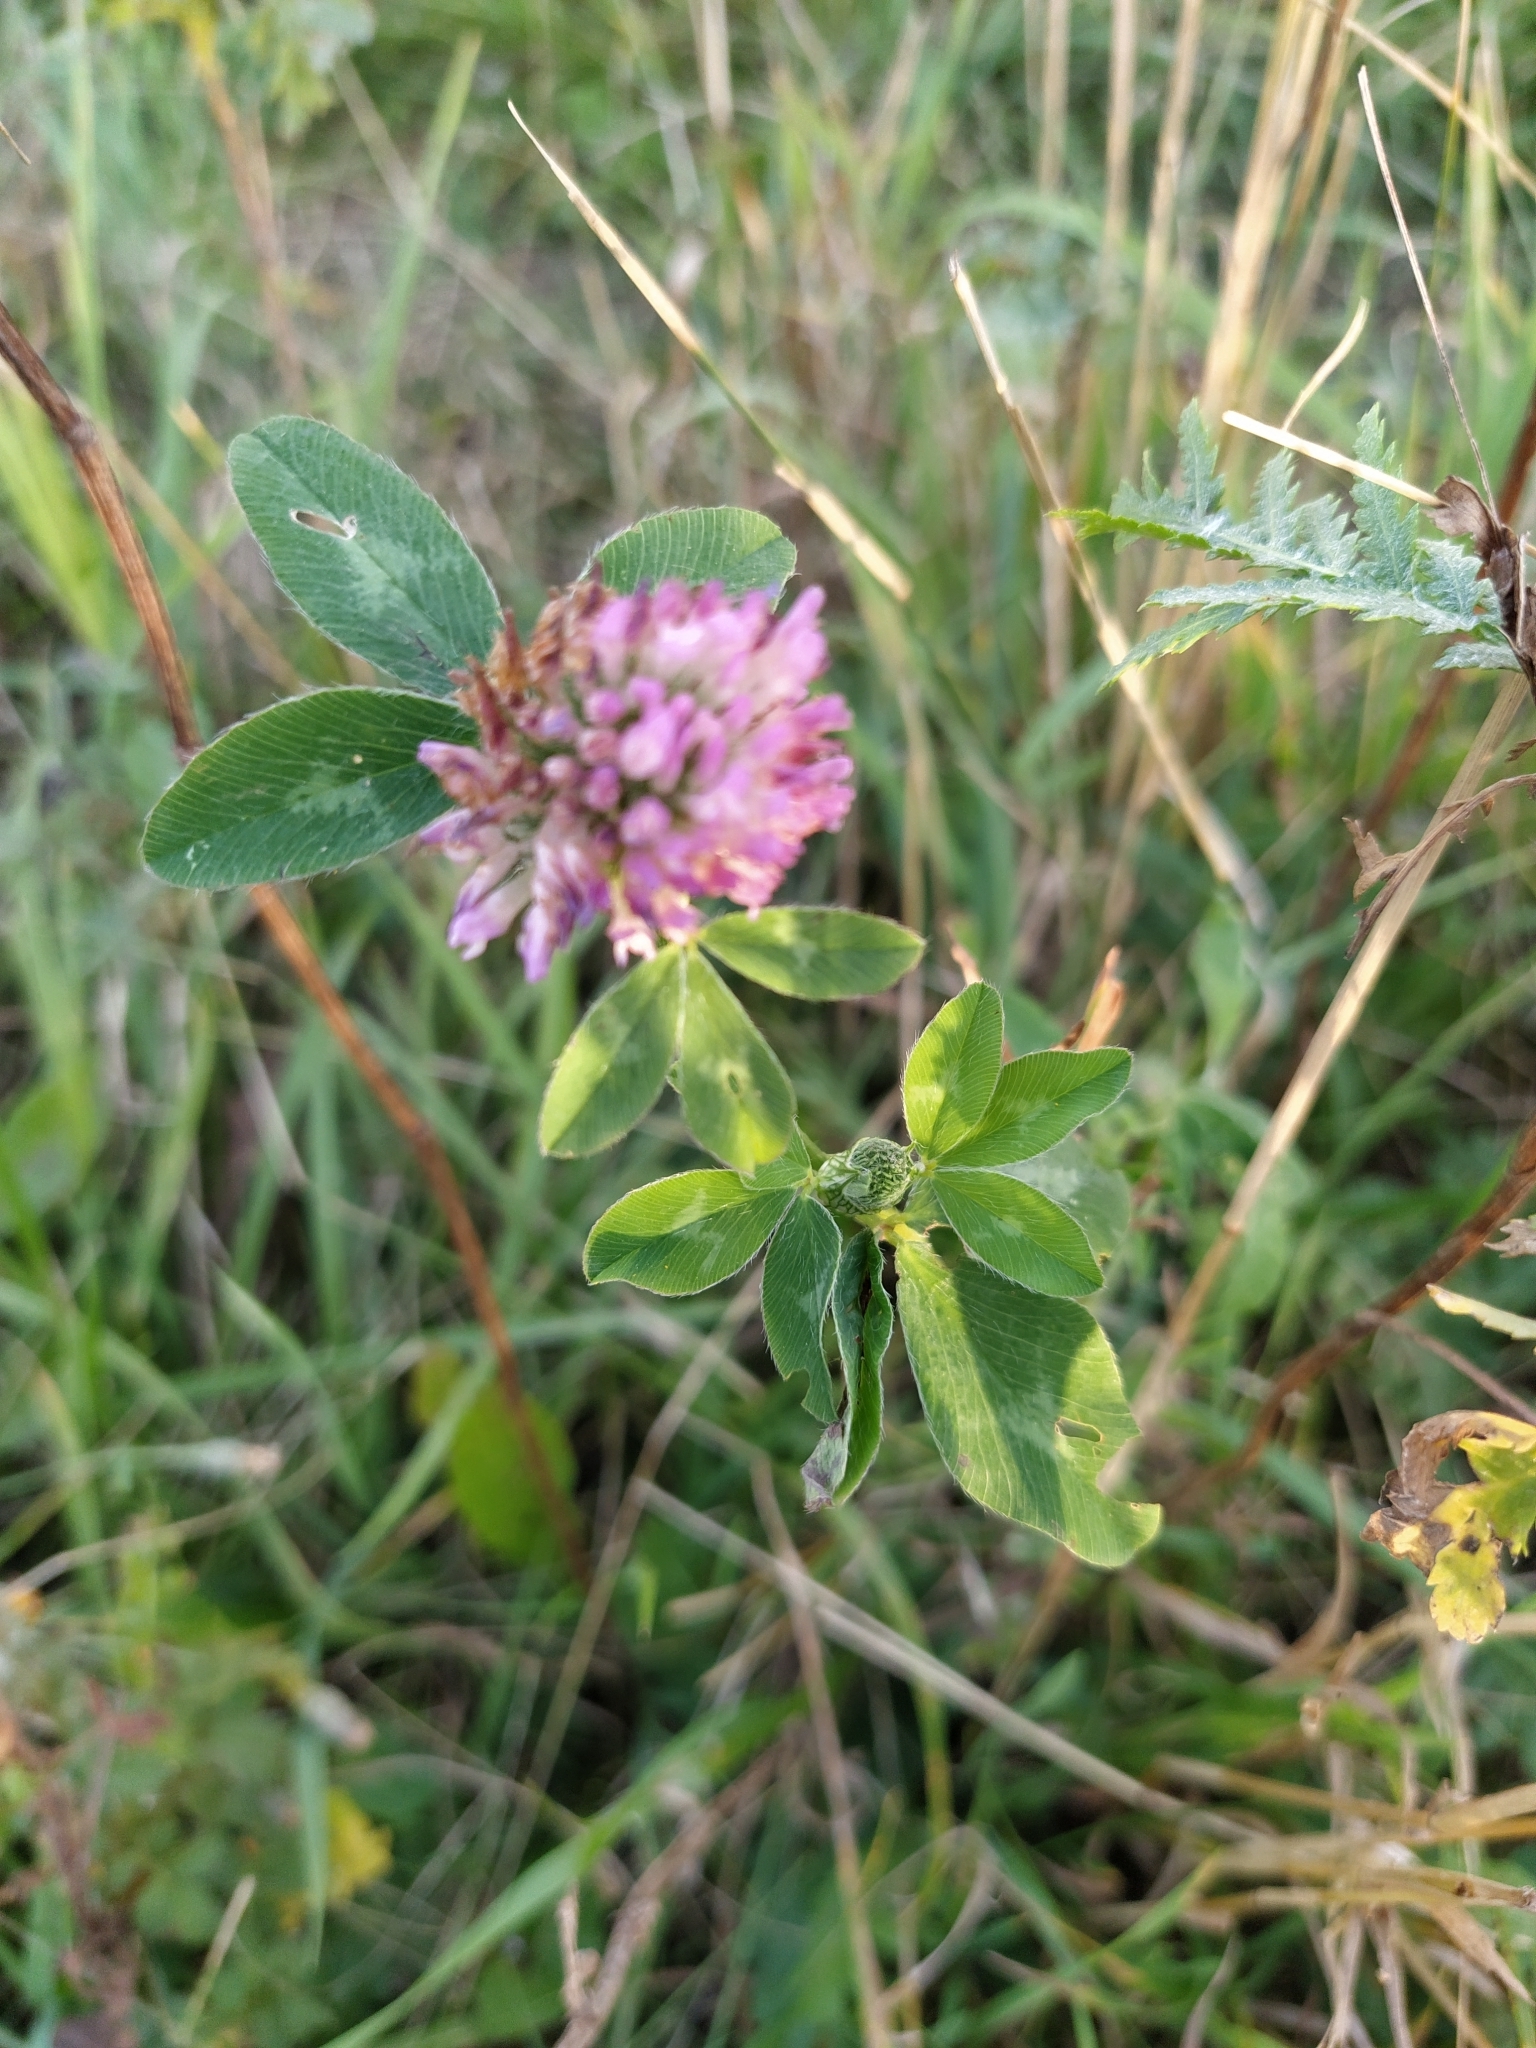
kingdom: Plantae
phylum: Tracheophyta
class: Magnoliopsida
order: Fabales
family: Fabaceae
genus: Trifolium
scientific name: Trifolium pratense
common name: Red clover
